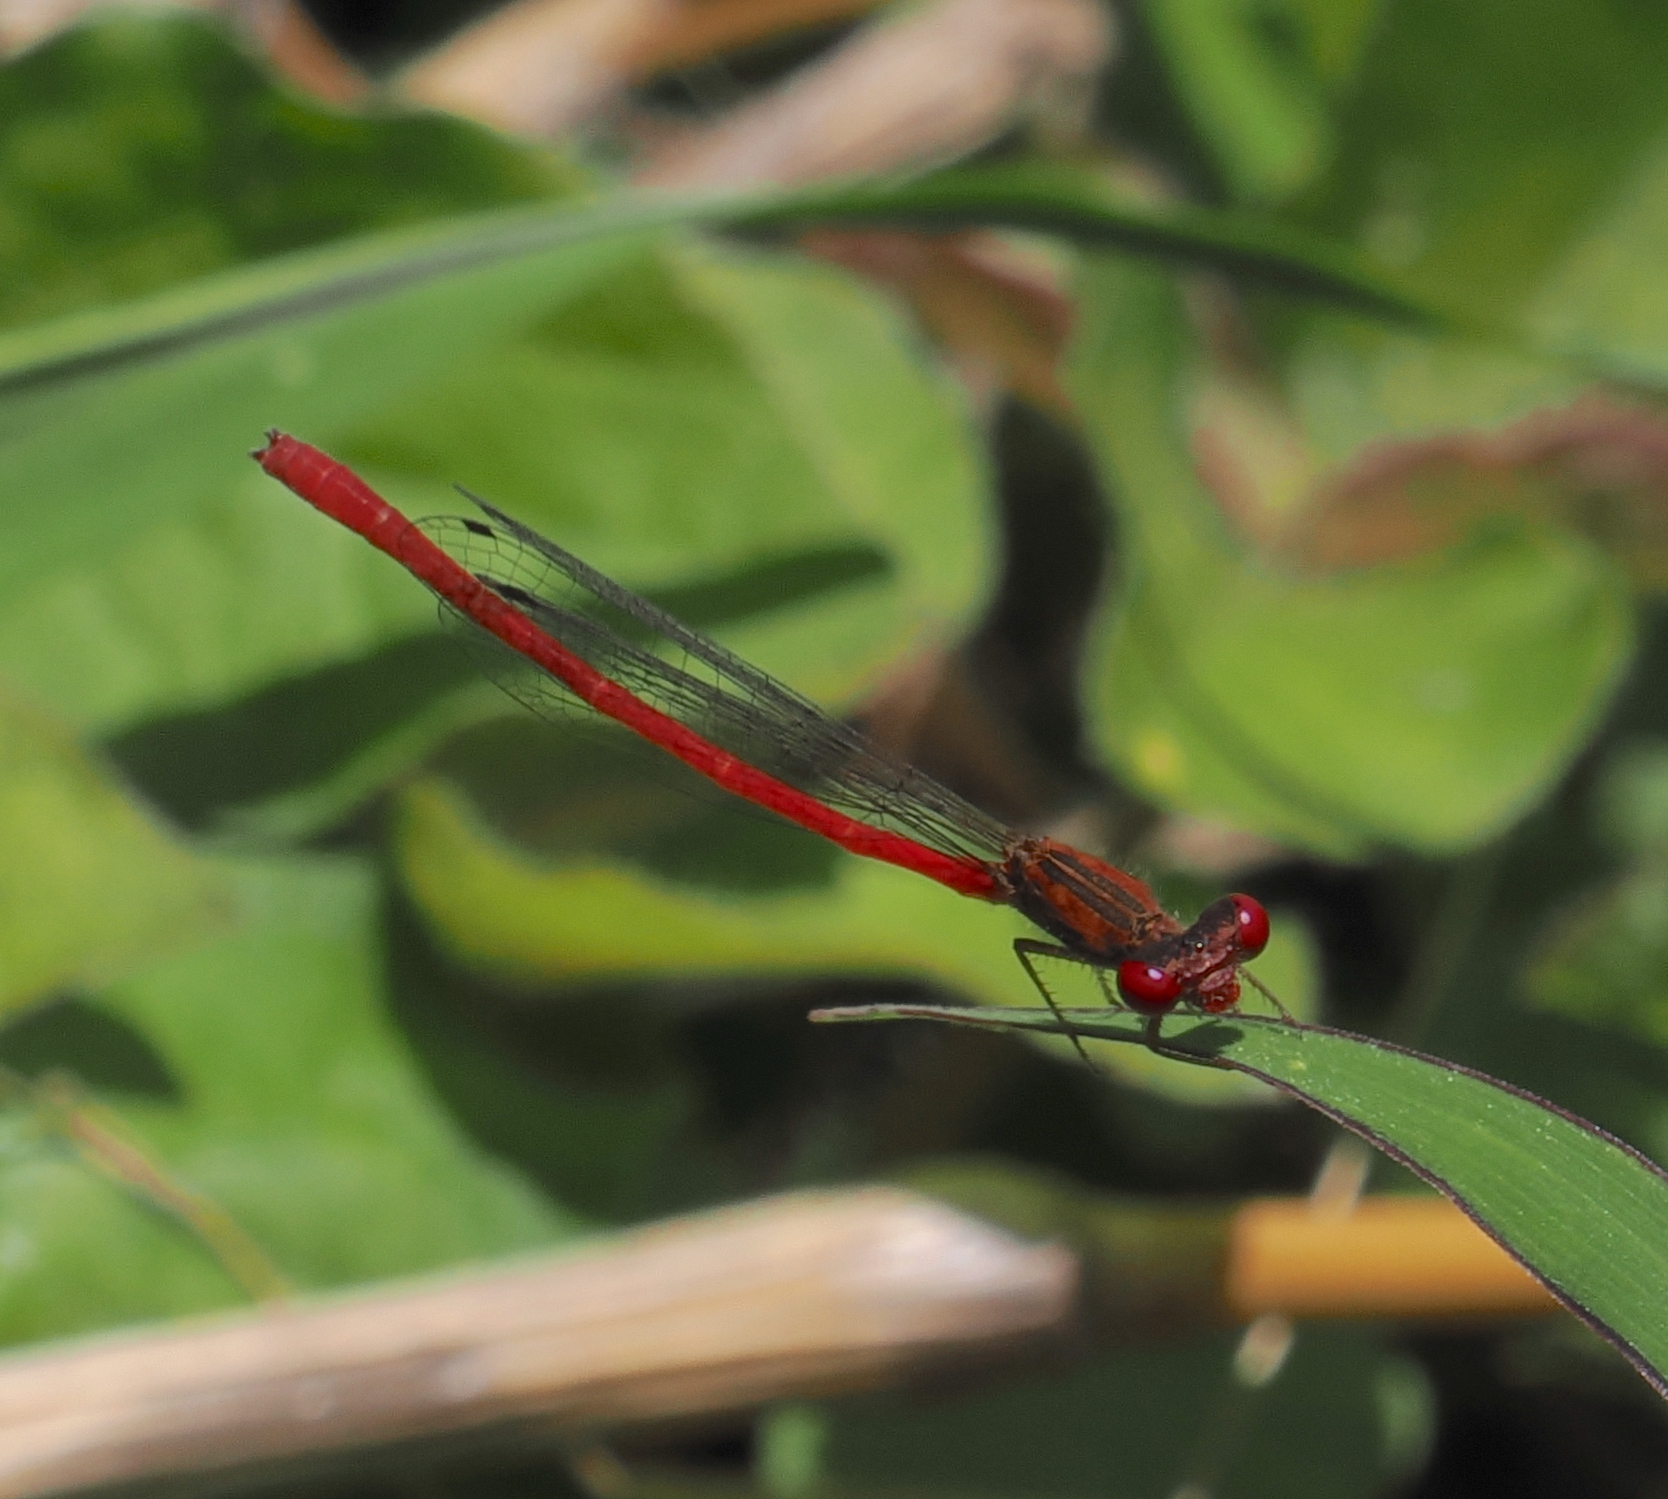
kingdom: Animalia
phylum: Arthropoda
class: Insecta
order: Odonata
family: Coenagrionidae
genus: Telebasis
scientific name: Telebasis salva
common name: Desert firetail
